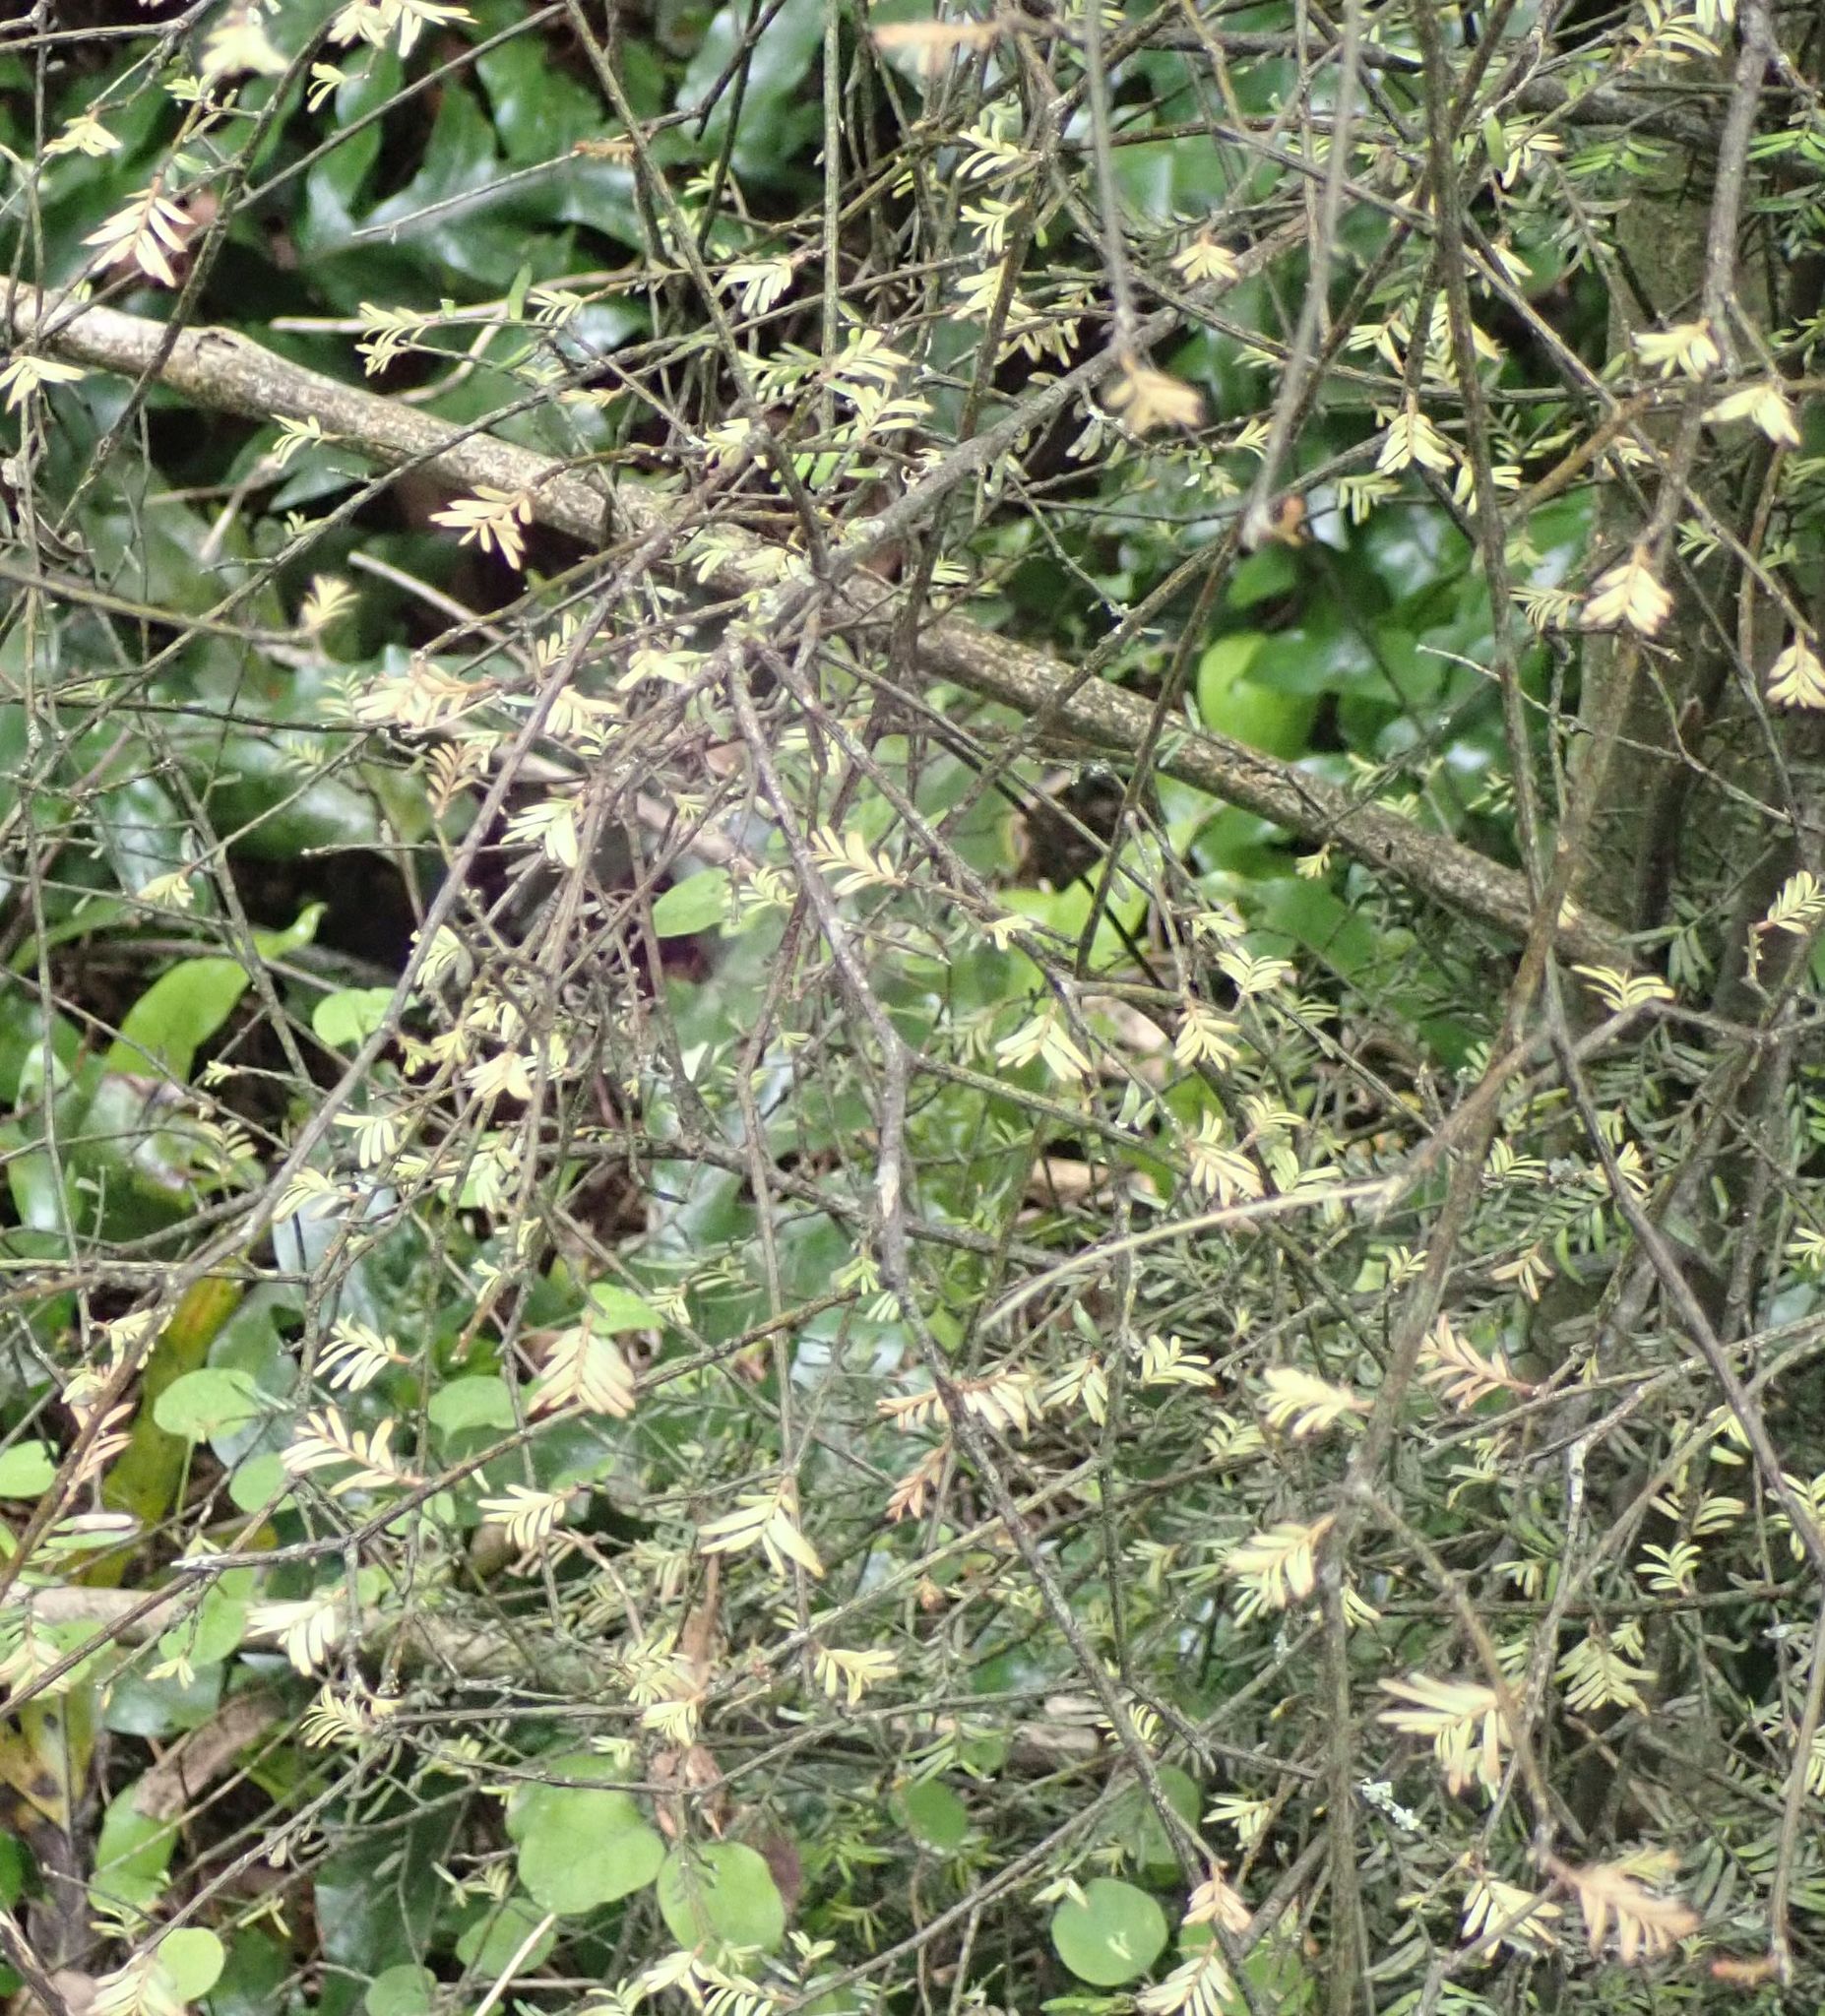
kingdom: Plantae
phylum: Tracheophyta
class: Pinopsida
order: Pinales
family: Podocarpaceae
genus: Prumnopitys
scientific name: Prumnopitys taxifolia
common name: Matai
